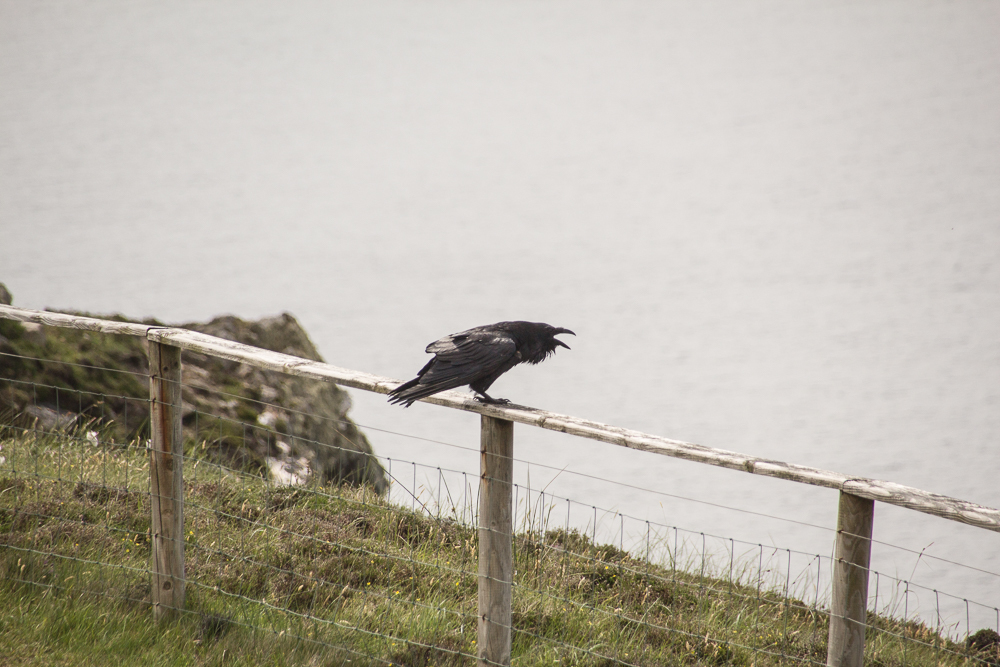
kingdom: Animalia
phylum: Chordata
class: Aves
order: Passeriformes
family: Corvidae
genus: Corvus
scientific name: Corvus corax
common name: Common raven
